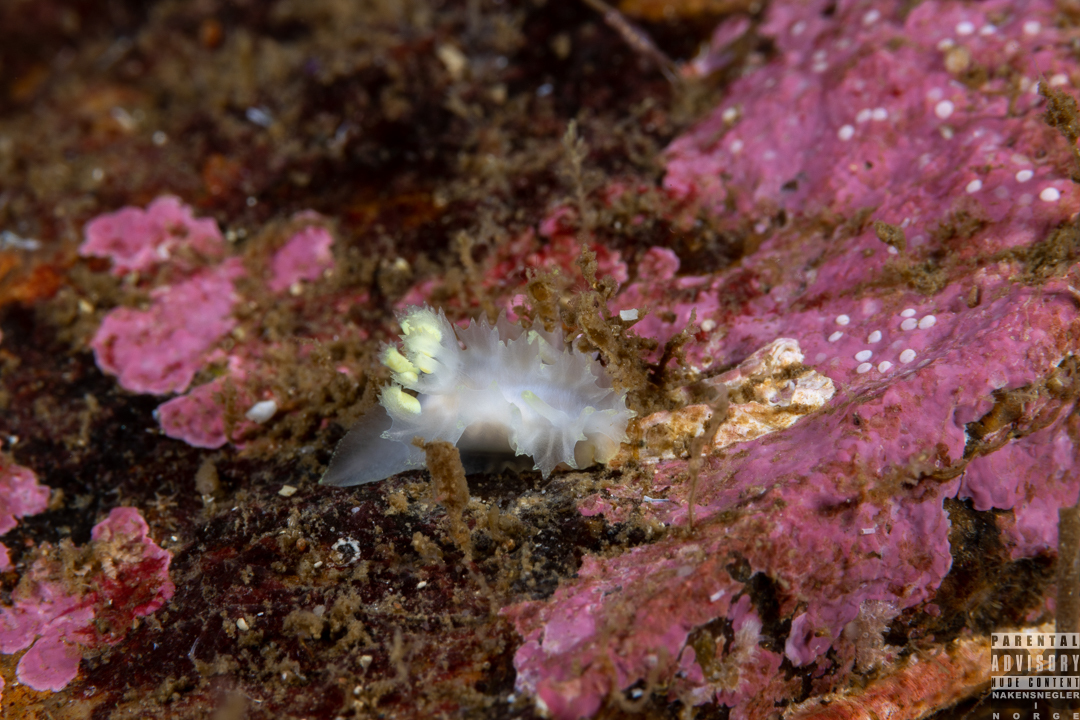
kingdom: Animalia
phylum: Mollusca
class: Gastropoda
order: Nudibranchia
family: Goniodorididae
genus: Lophodoris
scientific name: Lophodoris danielsseni
